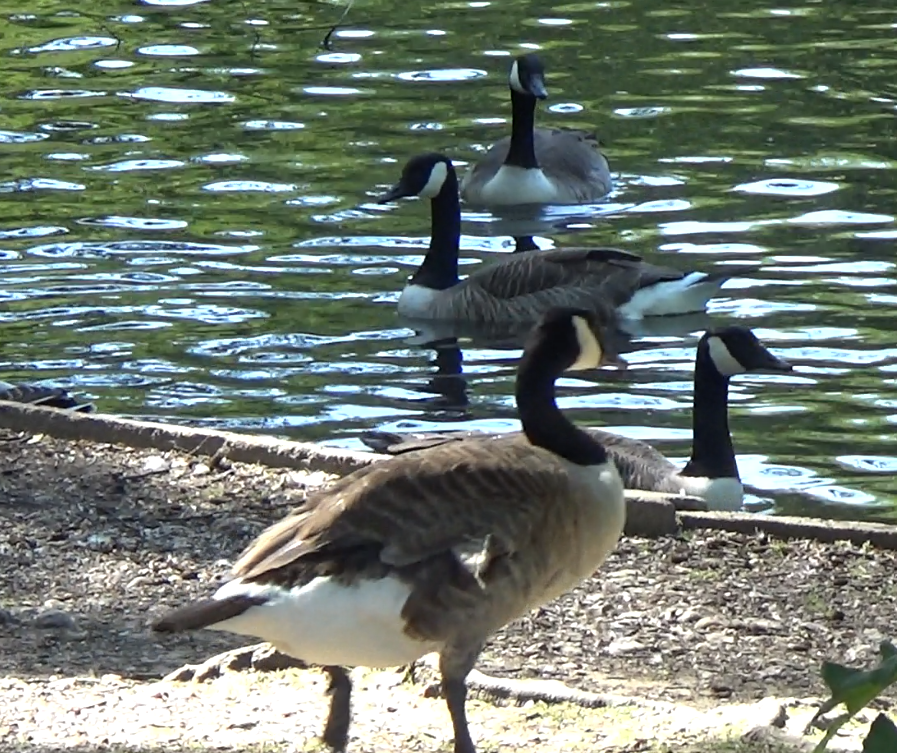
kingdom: Animalia
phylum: Chordata
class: Aves
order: Anseriformes
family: Anatidae
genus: Branta
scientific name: Branta canadensis
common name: Canada goose
